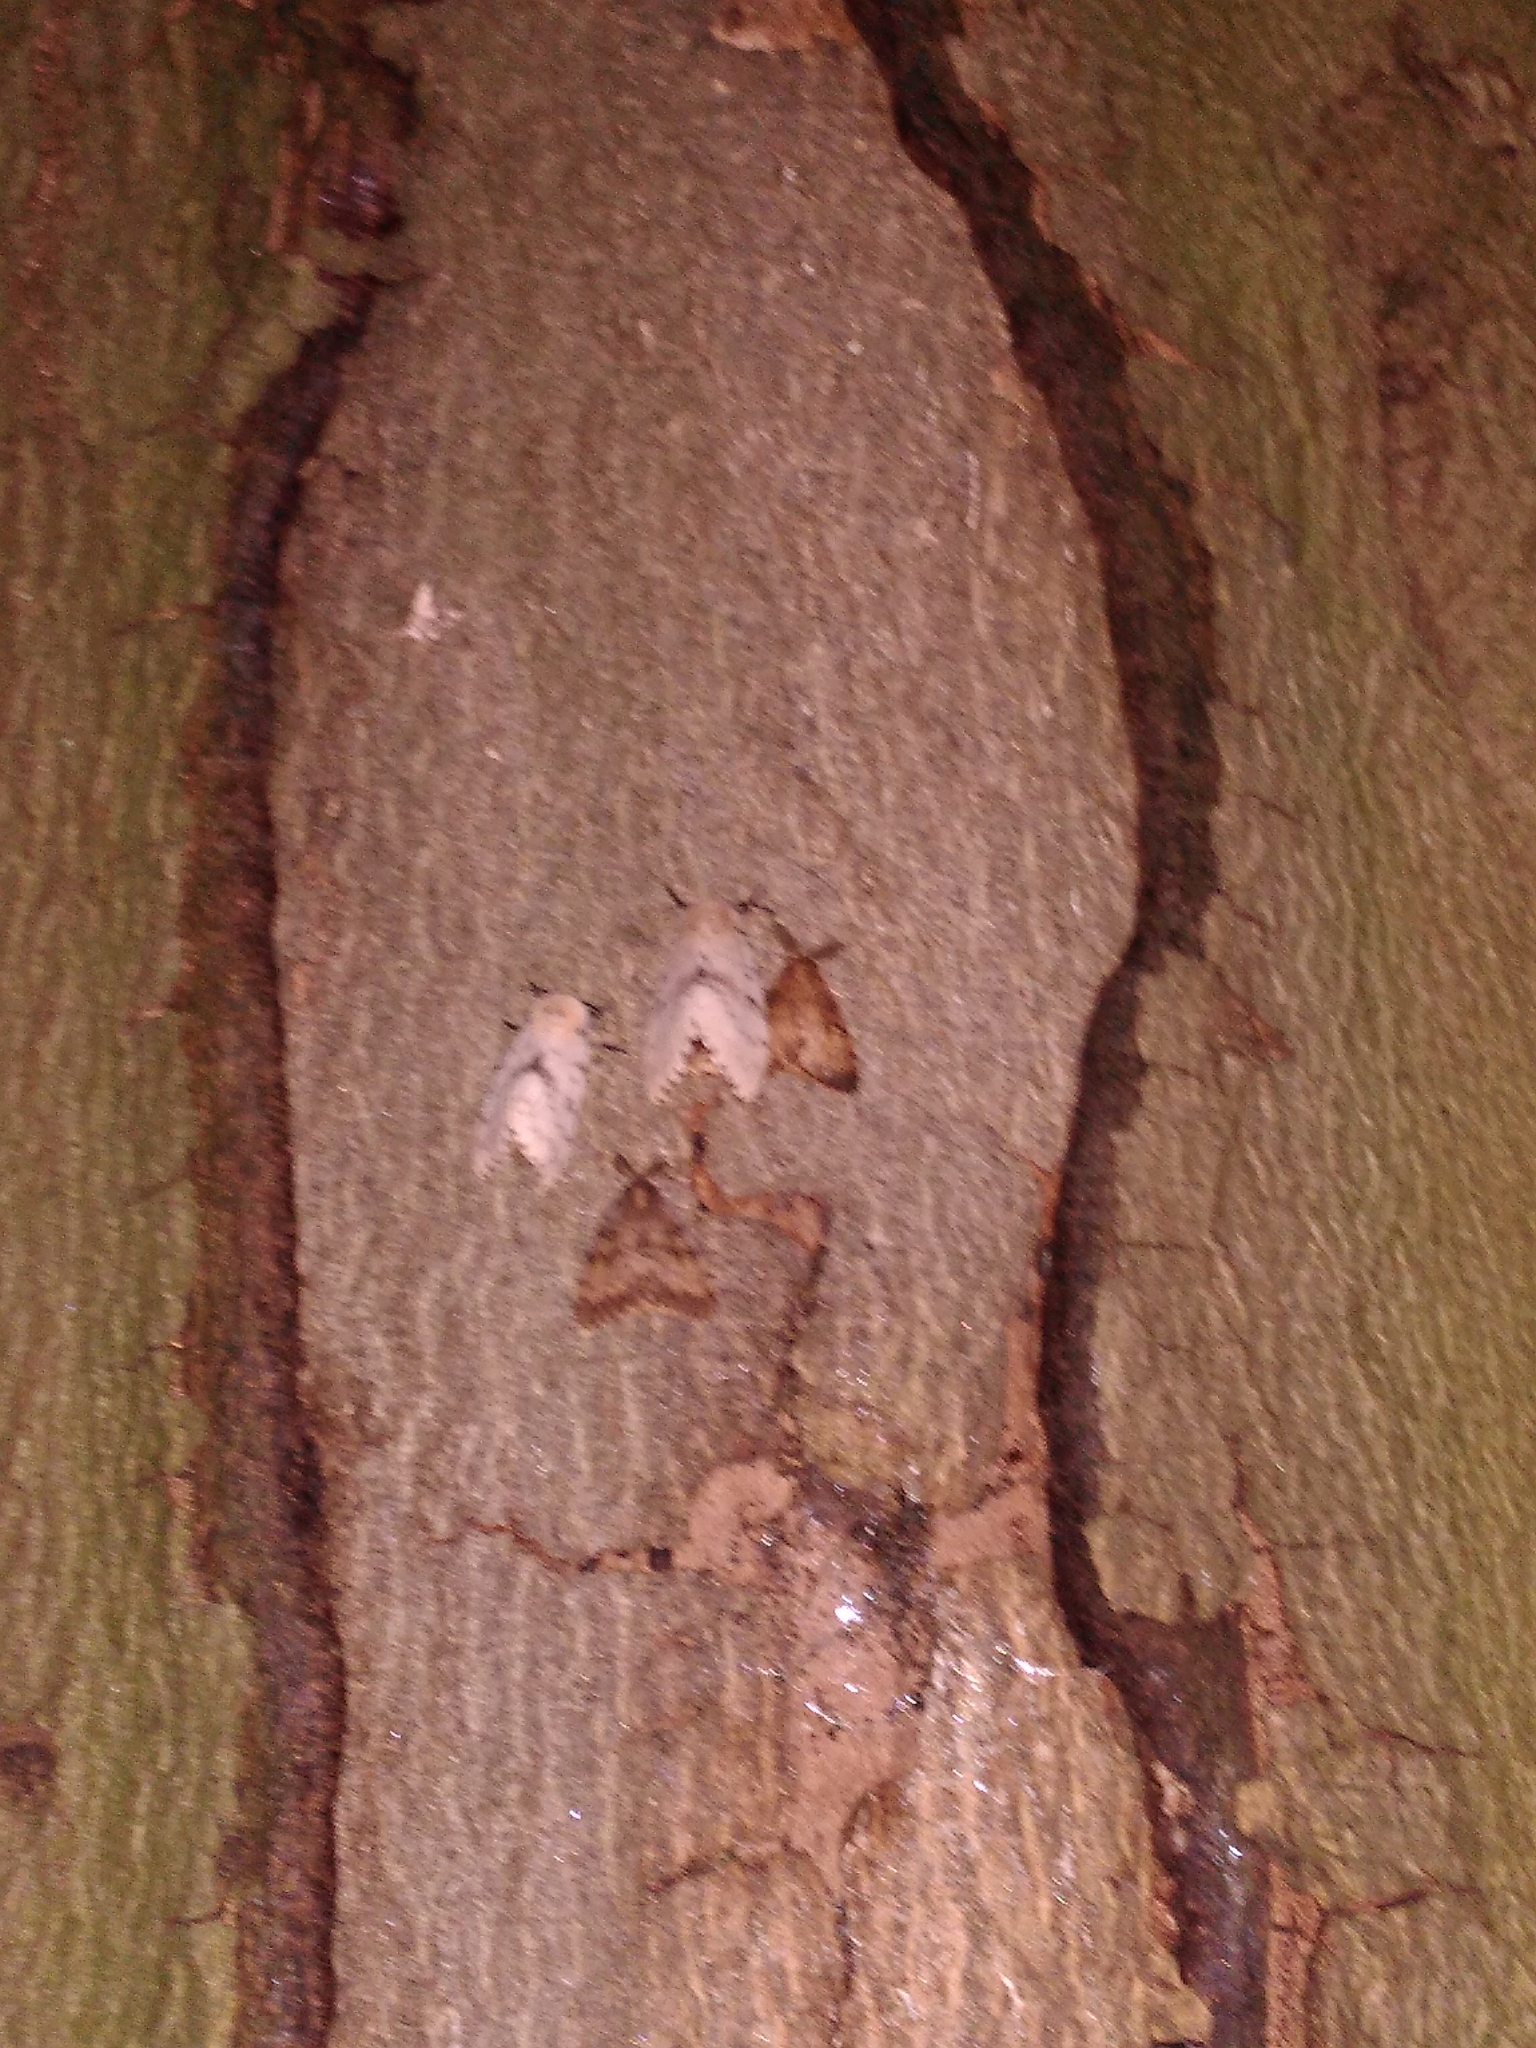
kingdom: Animalia
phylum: Arthropoda
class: Insecta
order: Lepidoptera
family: Erebidae
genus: Lymantria
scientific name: Lymantria dispar
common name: Gypsy moth
